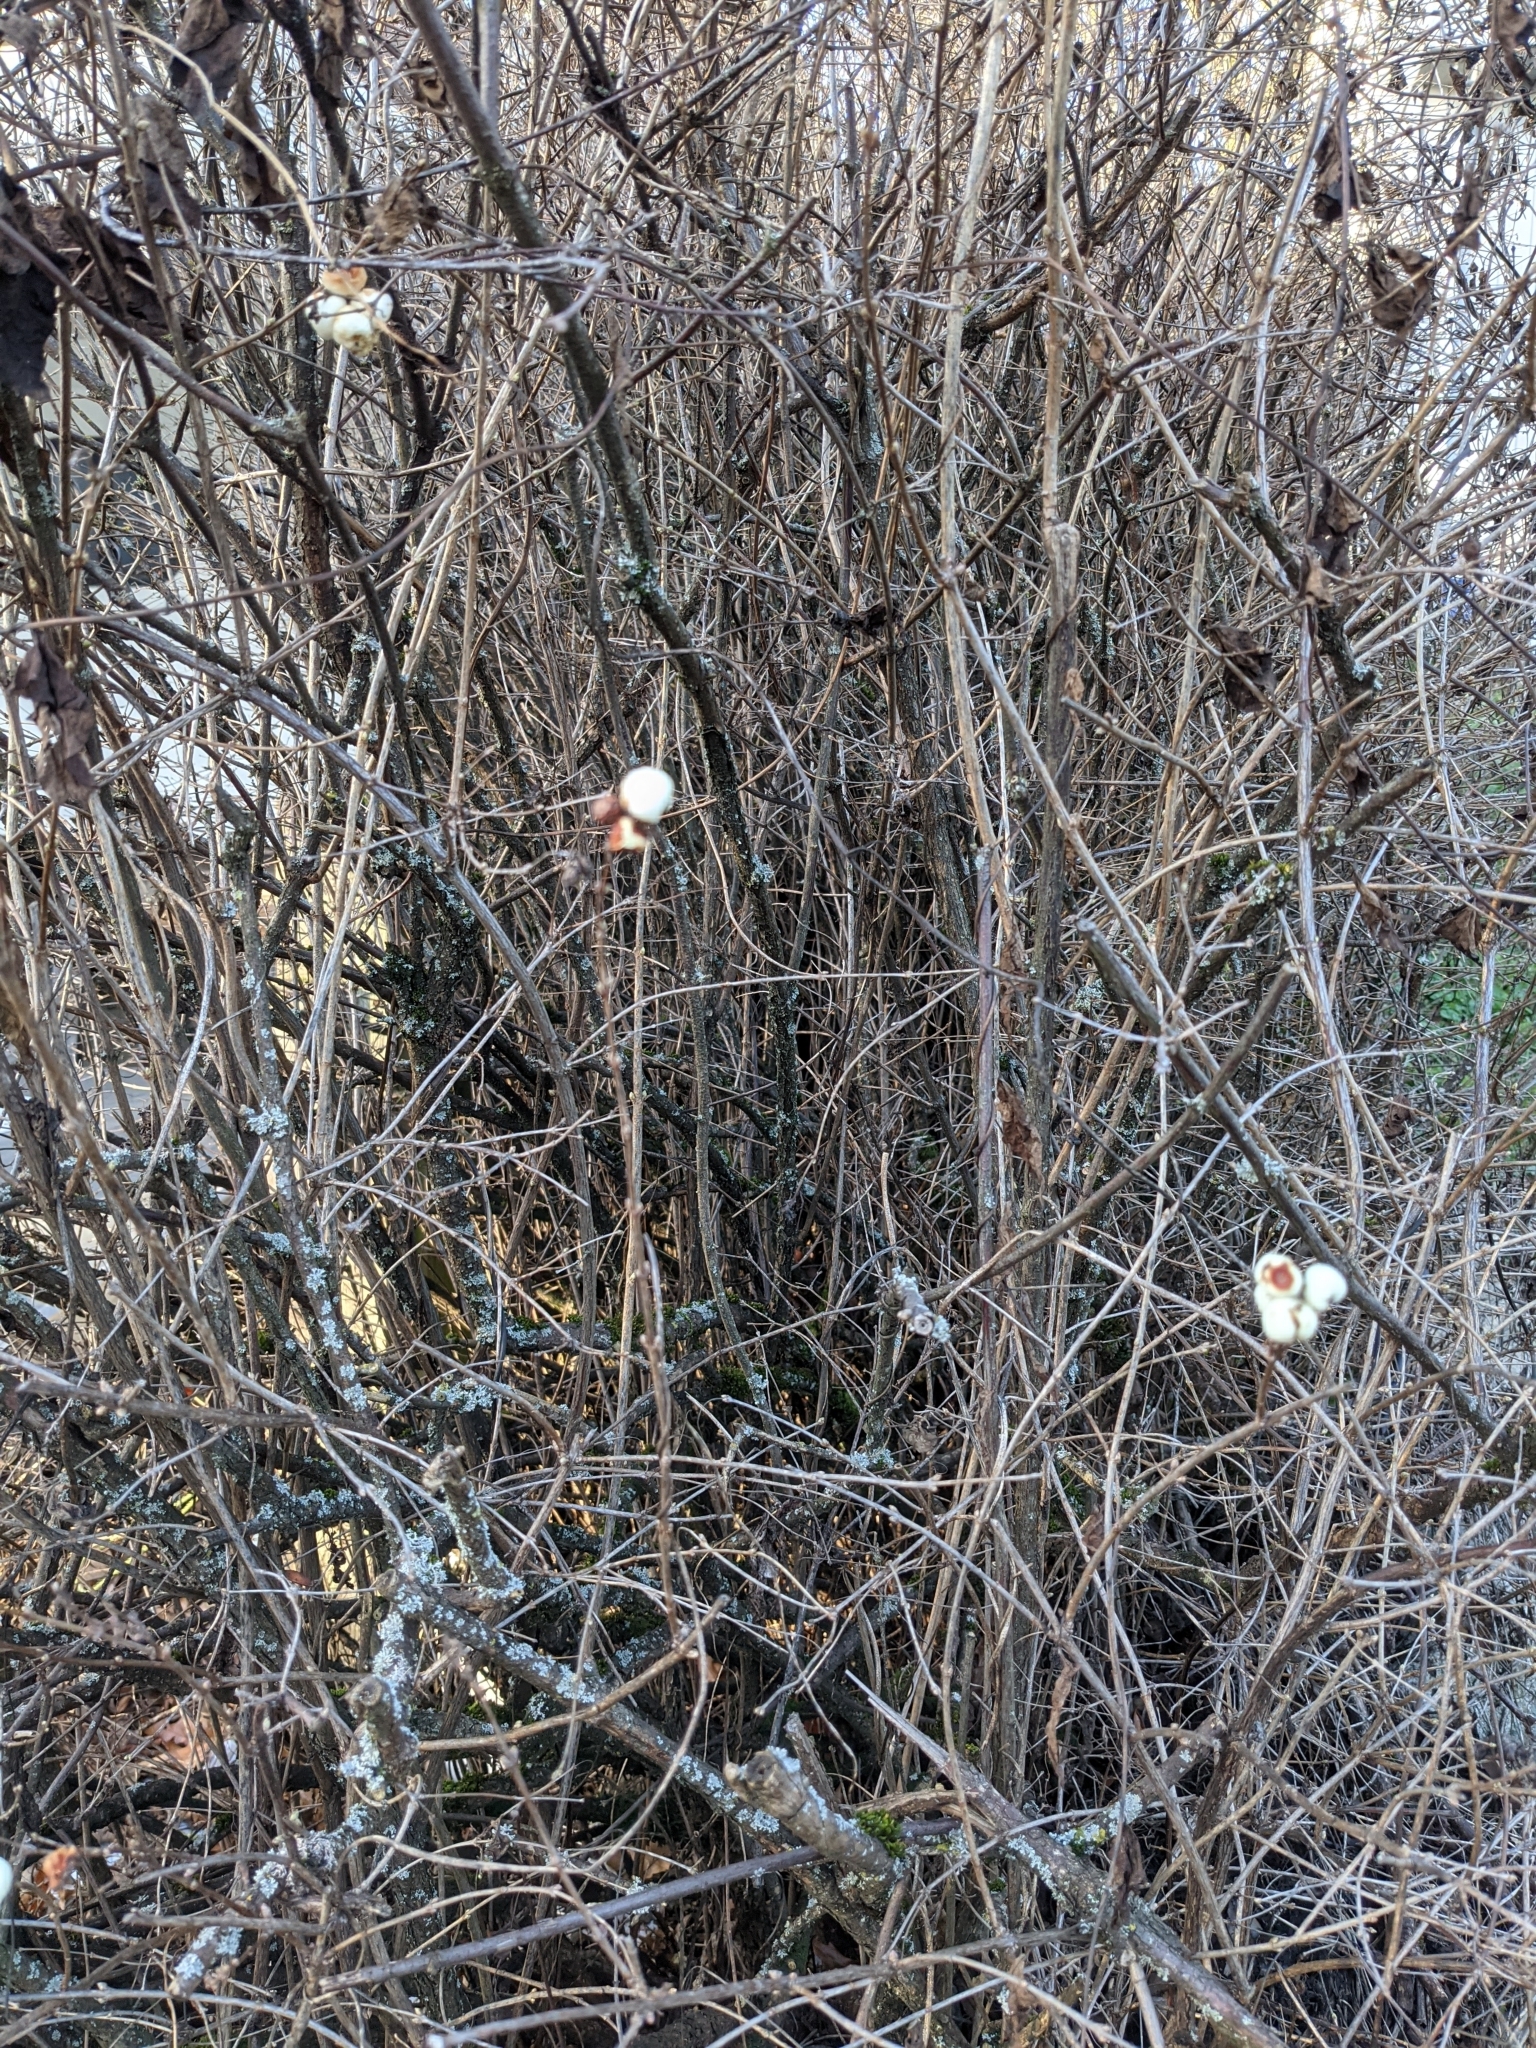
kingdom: Plantae
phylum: Tracheophyta
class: Magnoliopsida
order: Dipsacales
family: Caprifoliaceae
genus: Symphoricarpos
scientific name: Symphoricarpos albus
